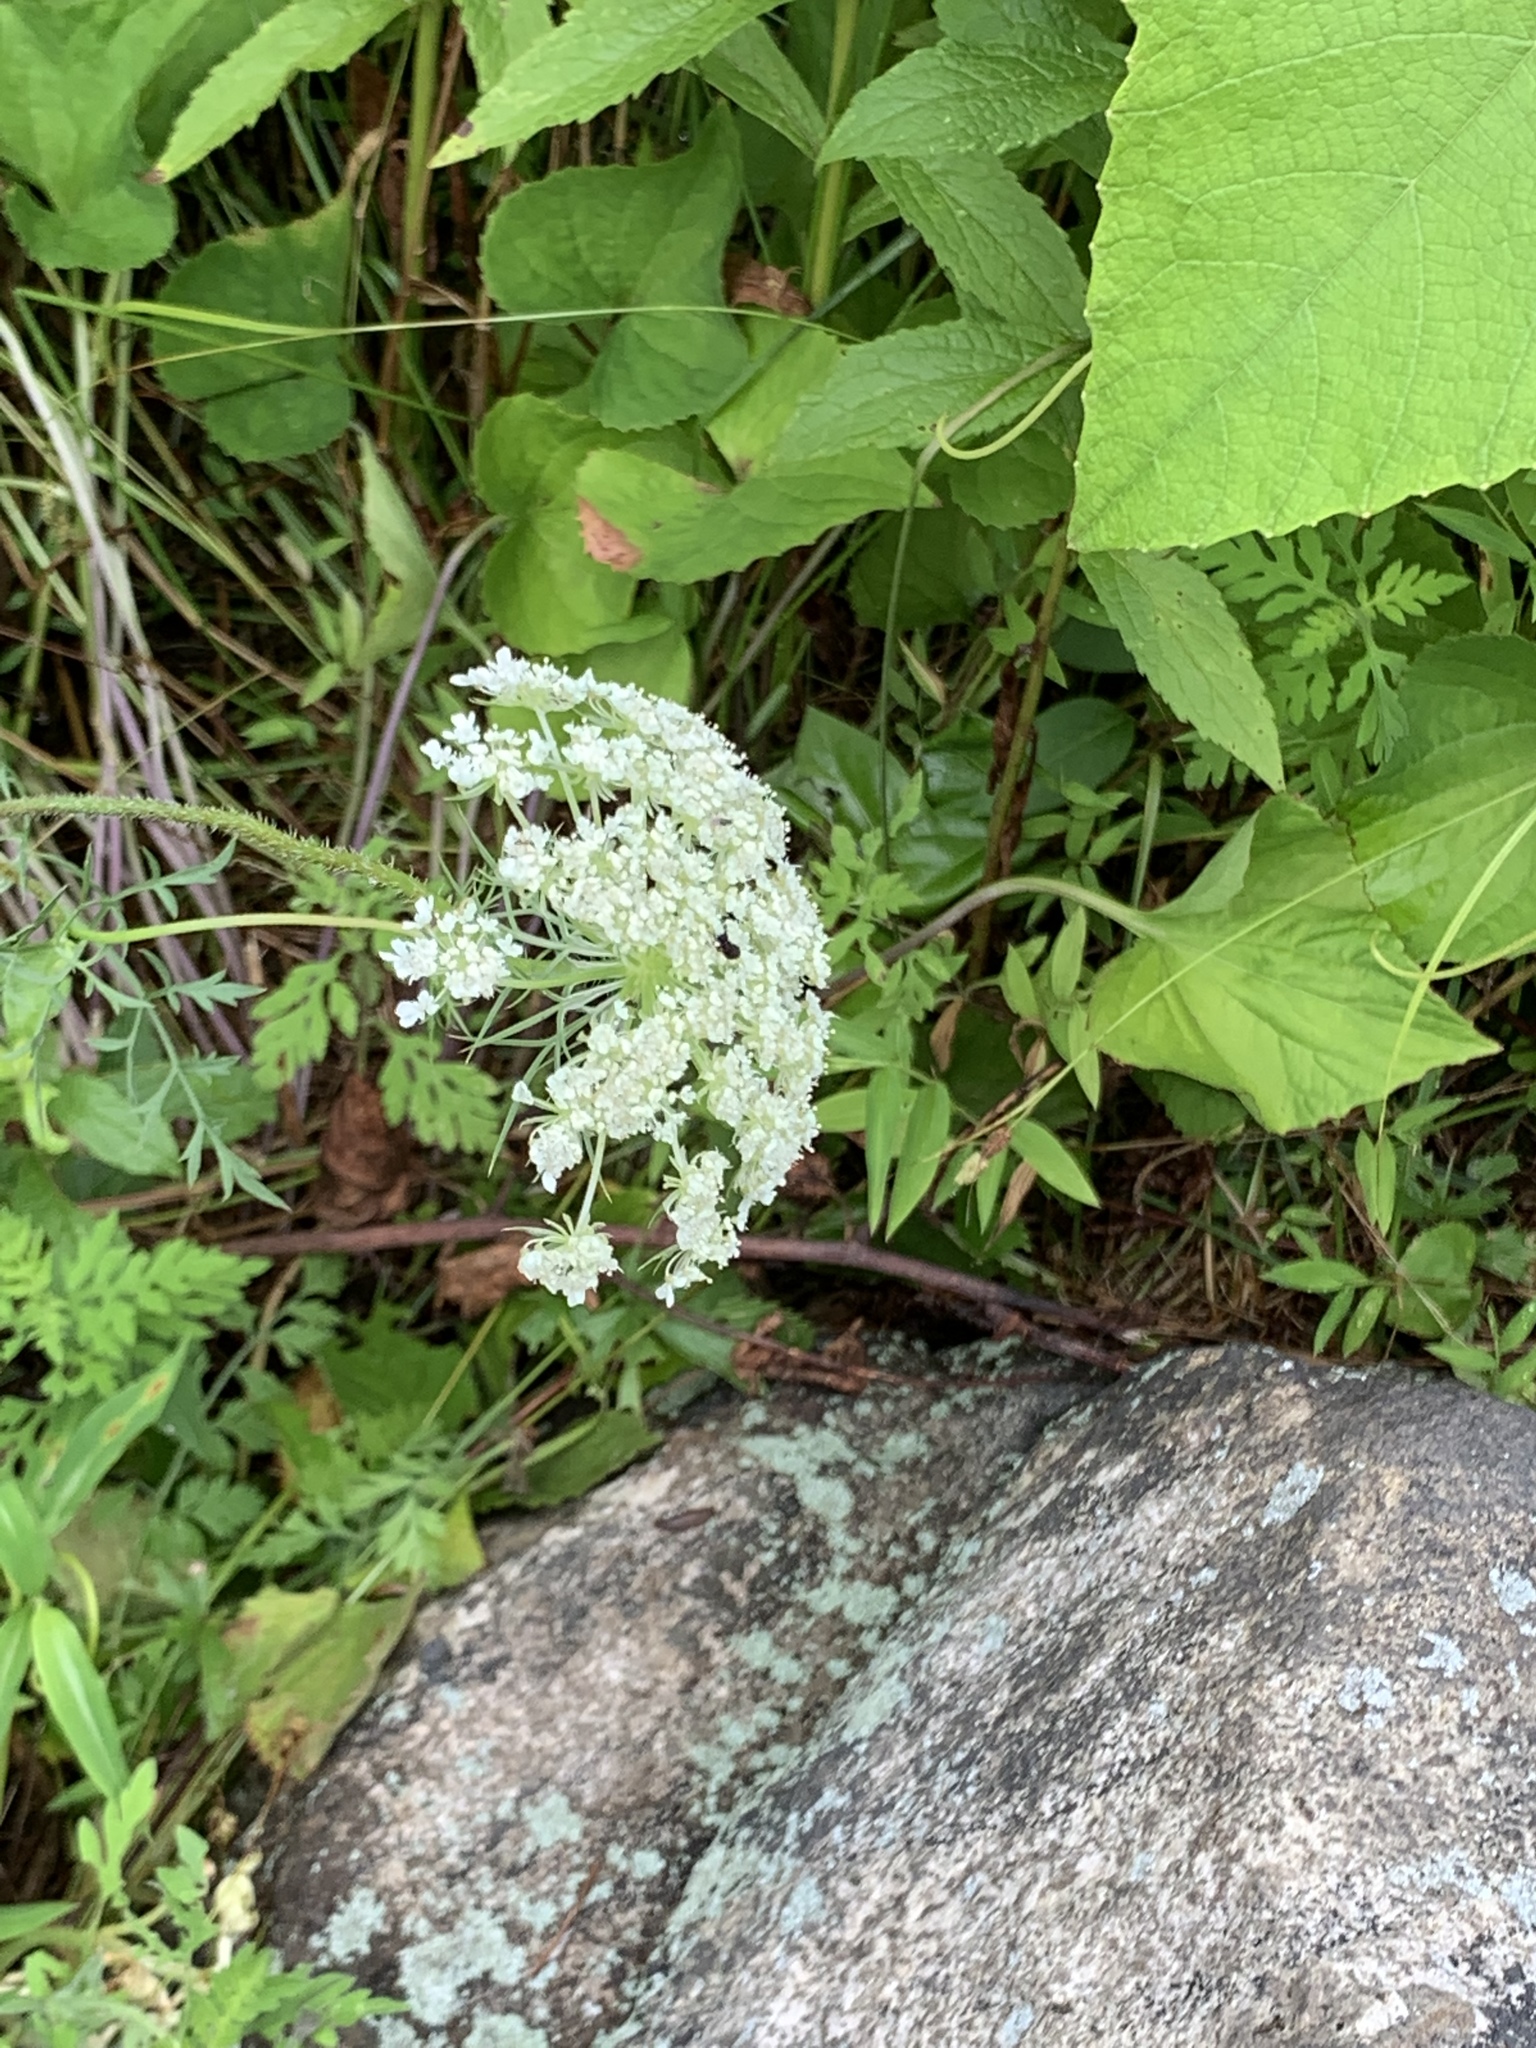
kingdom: Plantae
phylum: Tracheophyta
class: Magnoliopsida
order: Apiales
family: Apiaceae
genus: Daucus
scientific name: Daucus carota
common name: Wild carrot
